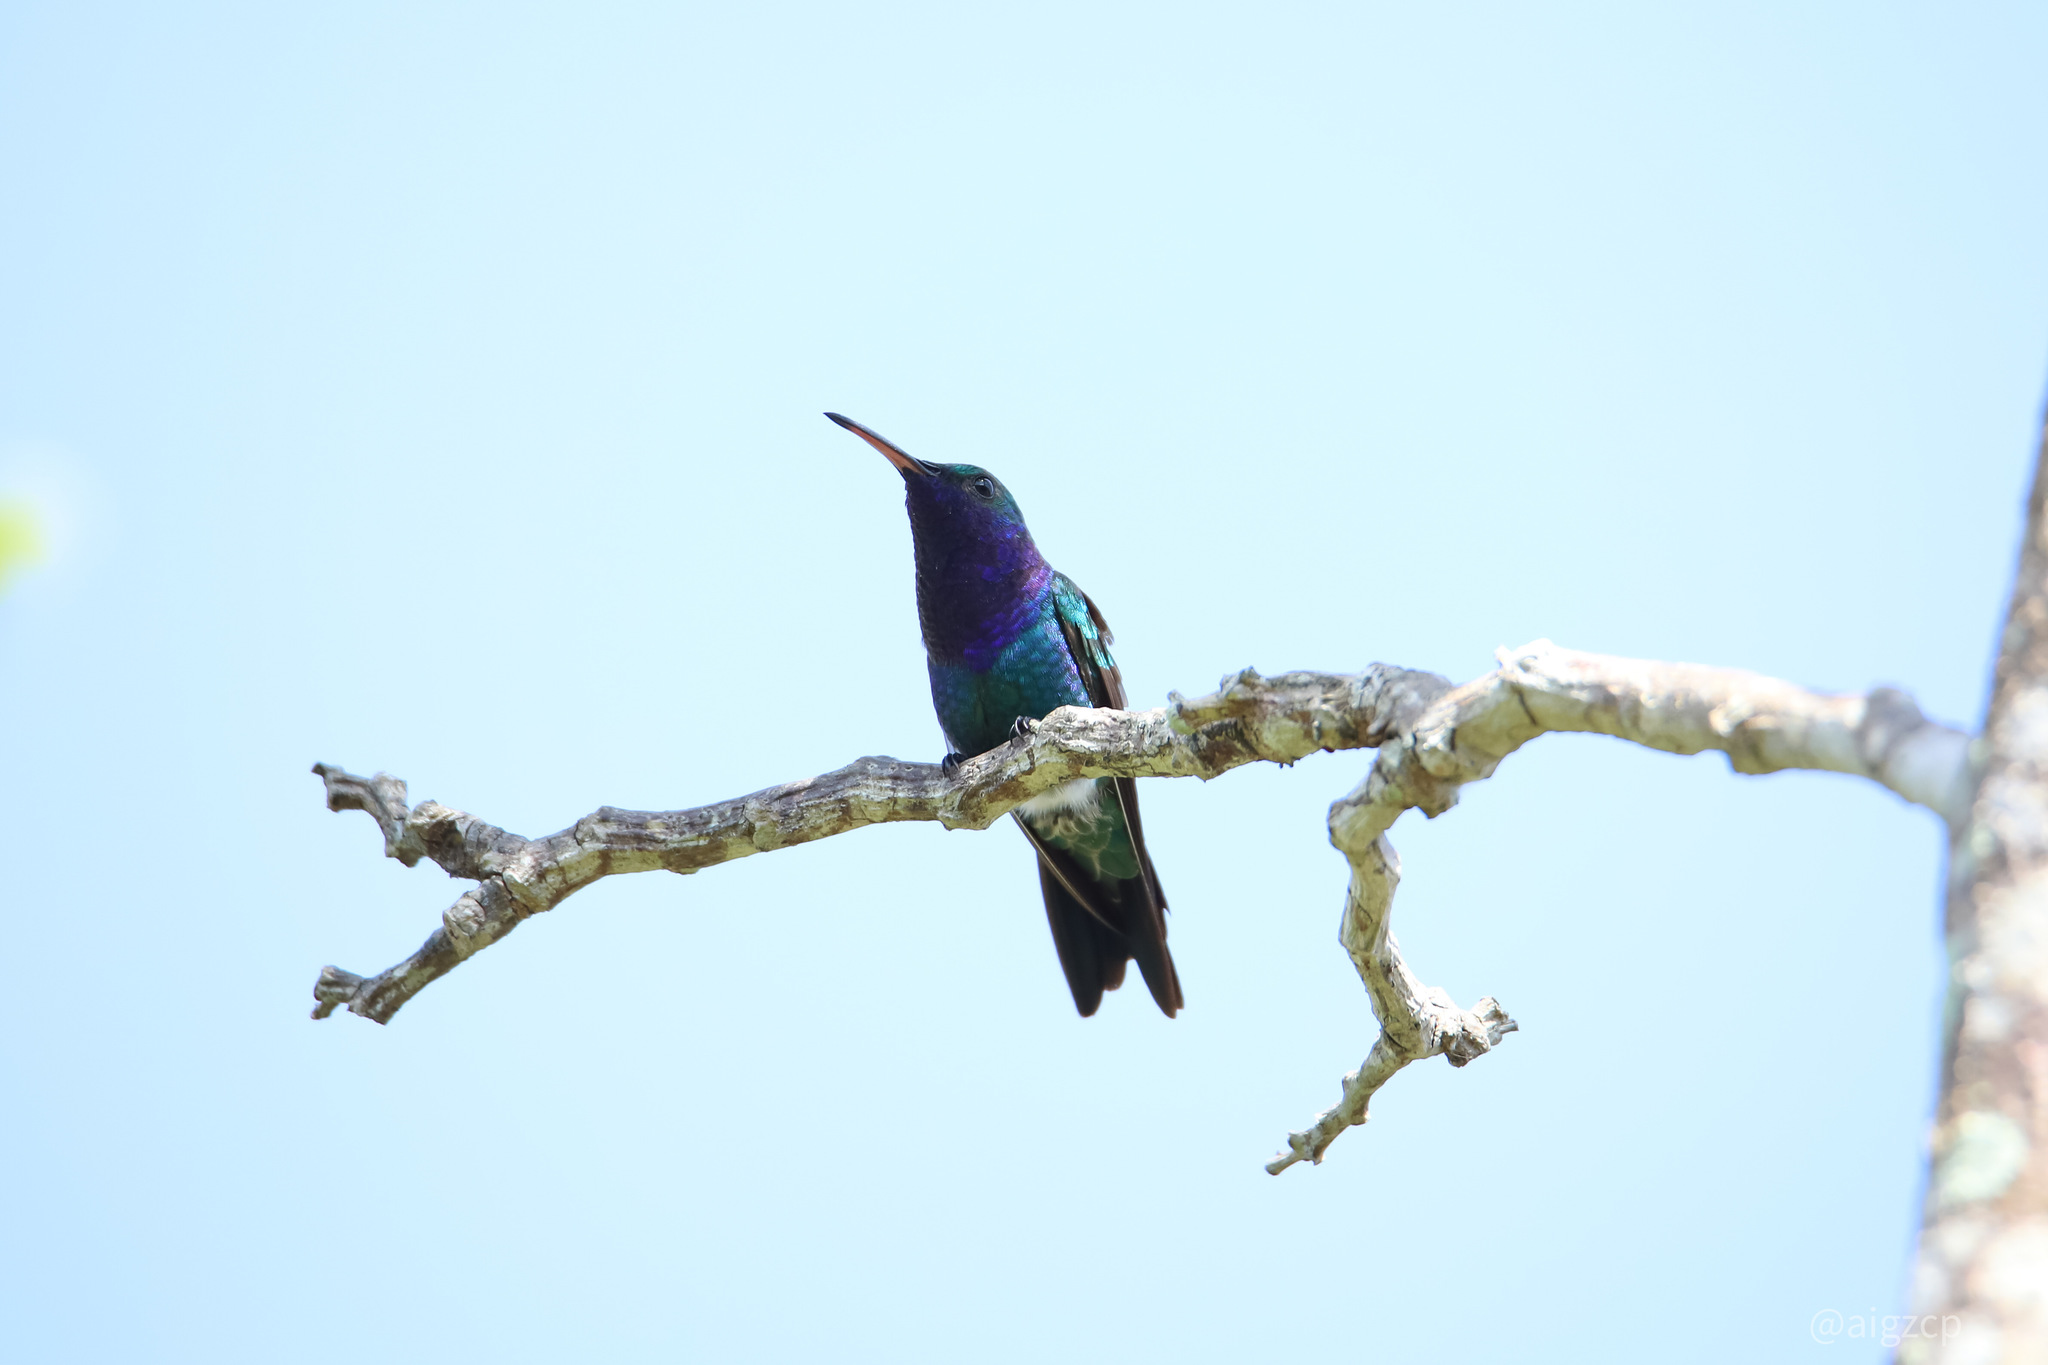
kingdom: Animalia
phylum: Chordata
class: Aves
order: Apodiformes
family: Trochilidae
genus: Chrysuronia
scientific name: Chrysuronia coeruleogularis
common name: Sapphire-throated hummingbird
